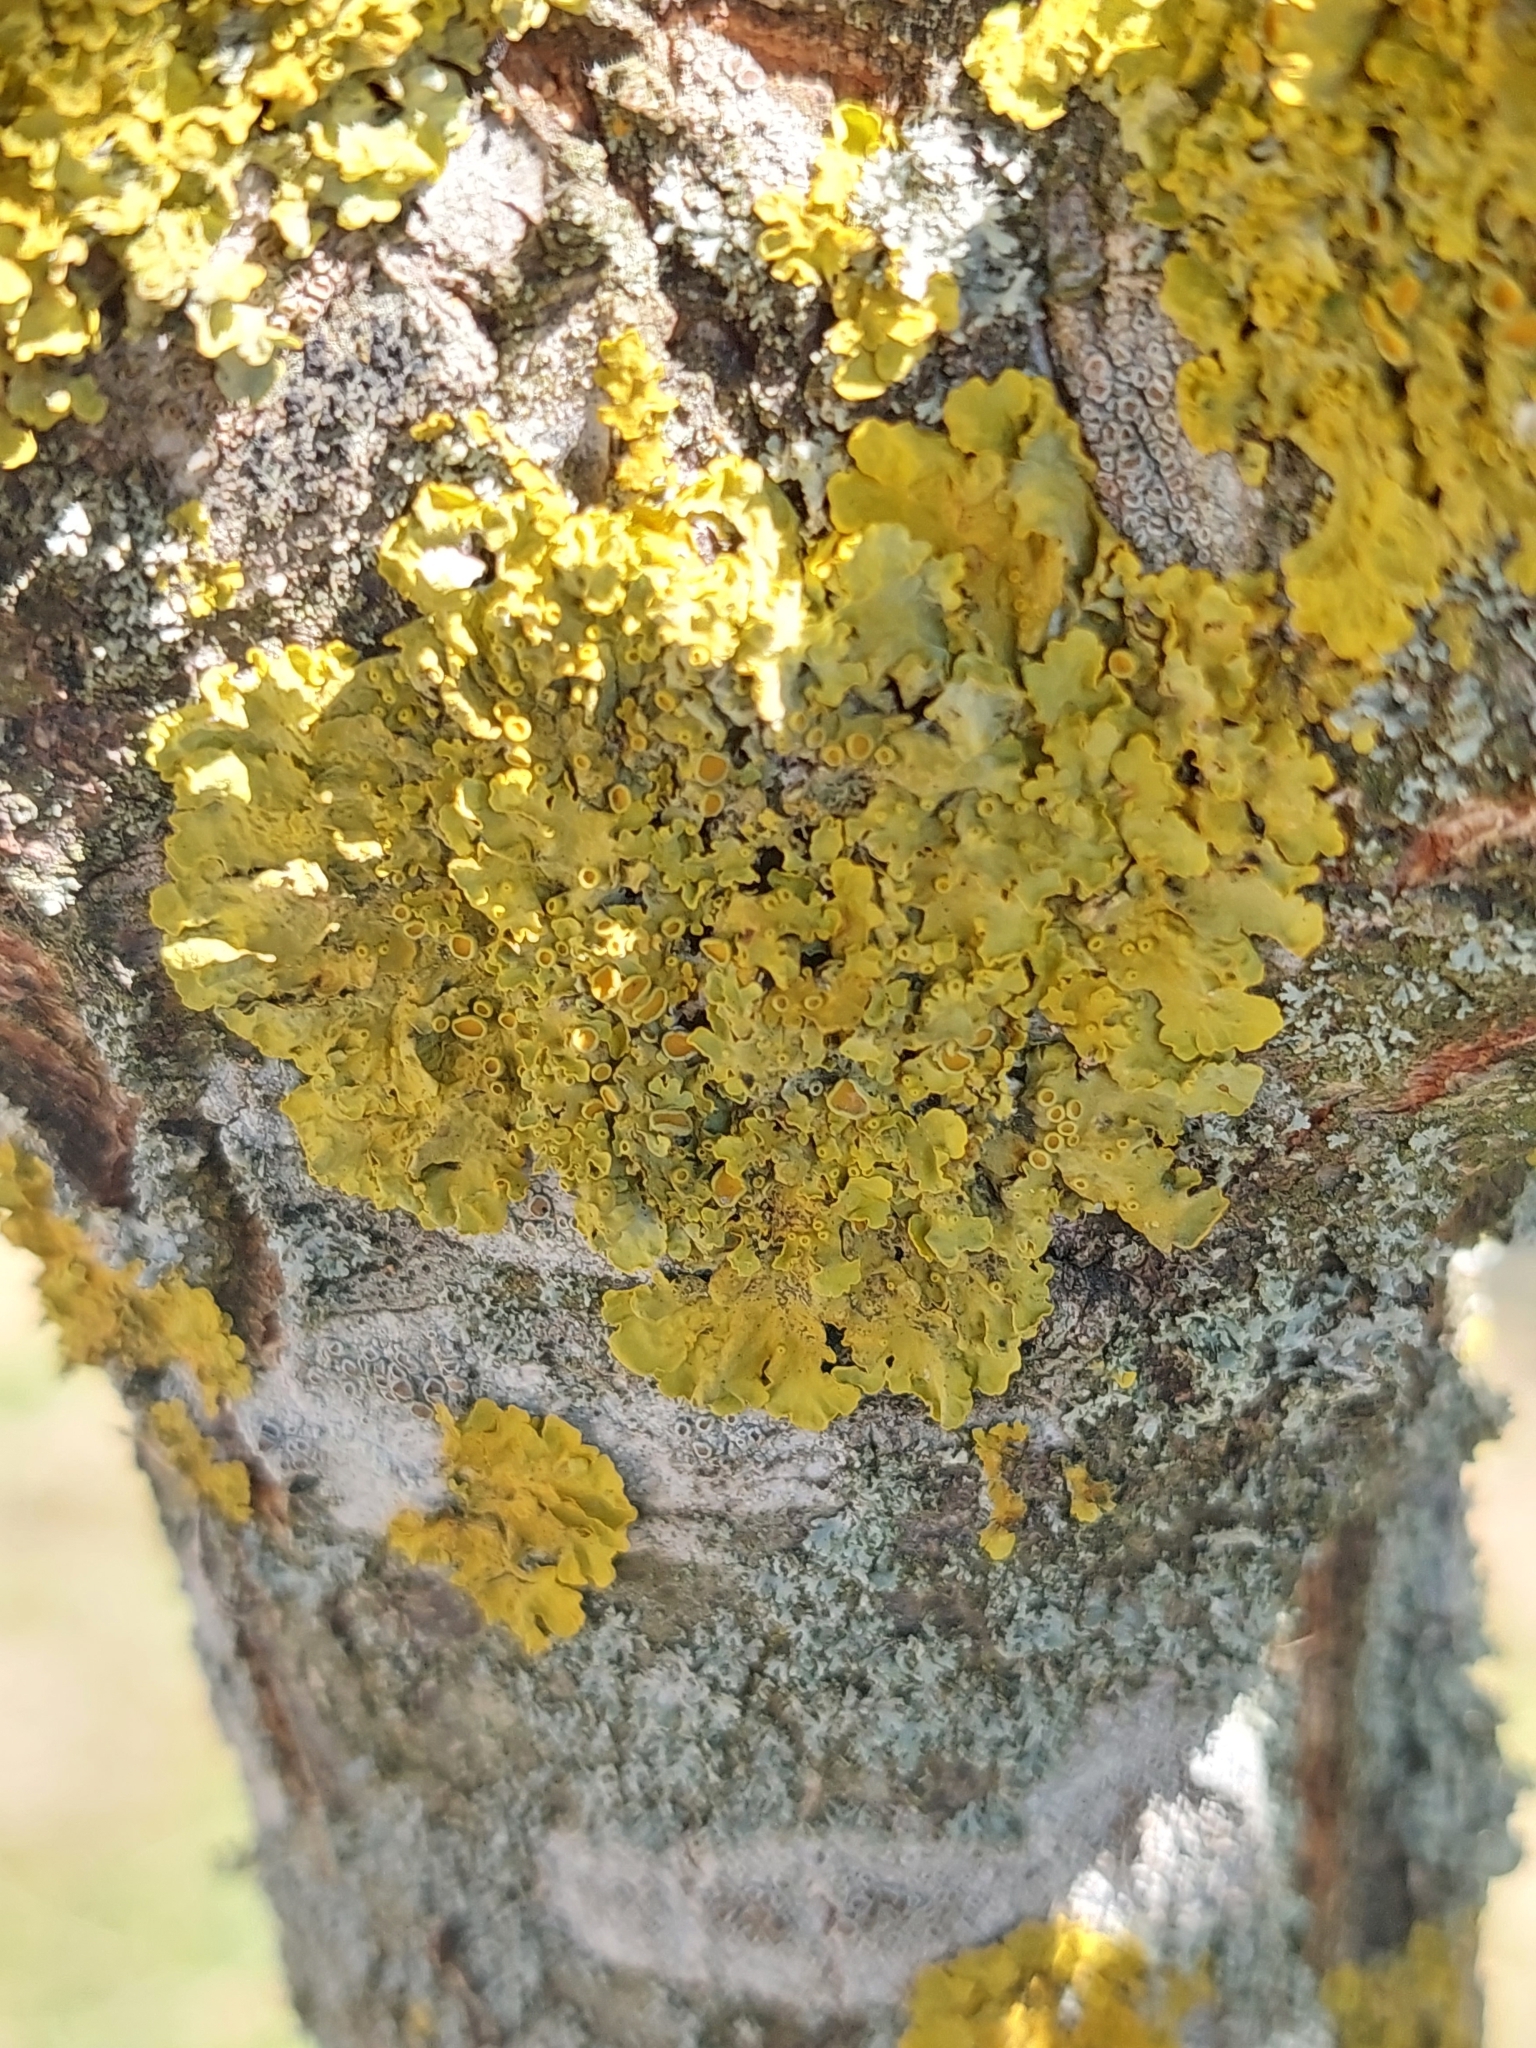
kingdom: Fungi
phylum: Ascomycota
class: Lecanoromycetes
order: Teloschistales
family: Teloschistaceae
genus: Xanthoria
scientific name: Xanthoria parietina
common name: Common orange lichen
